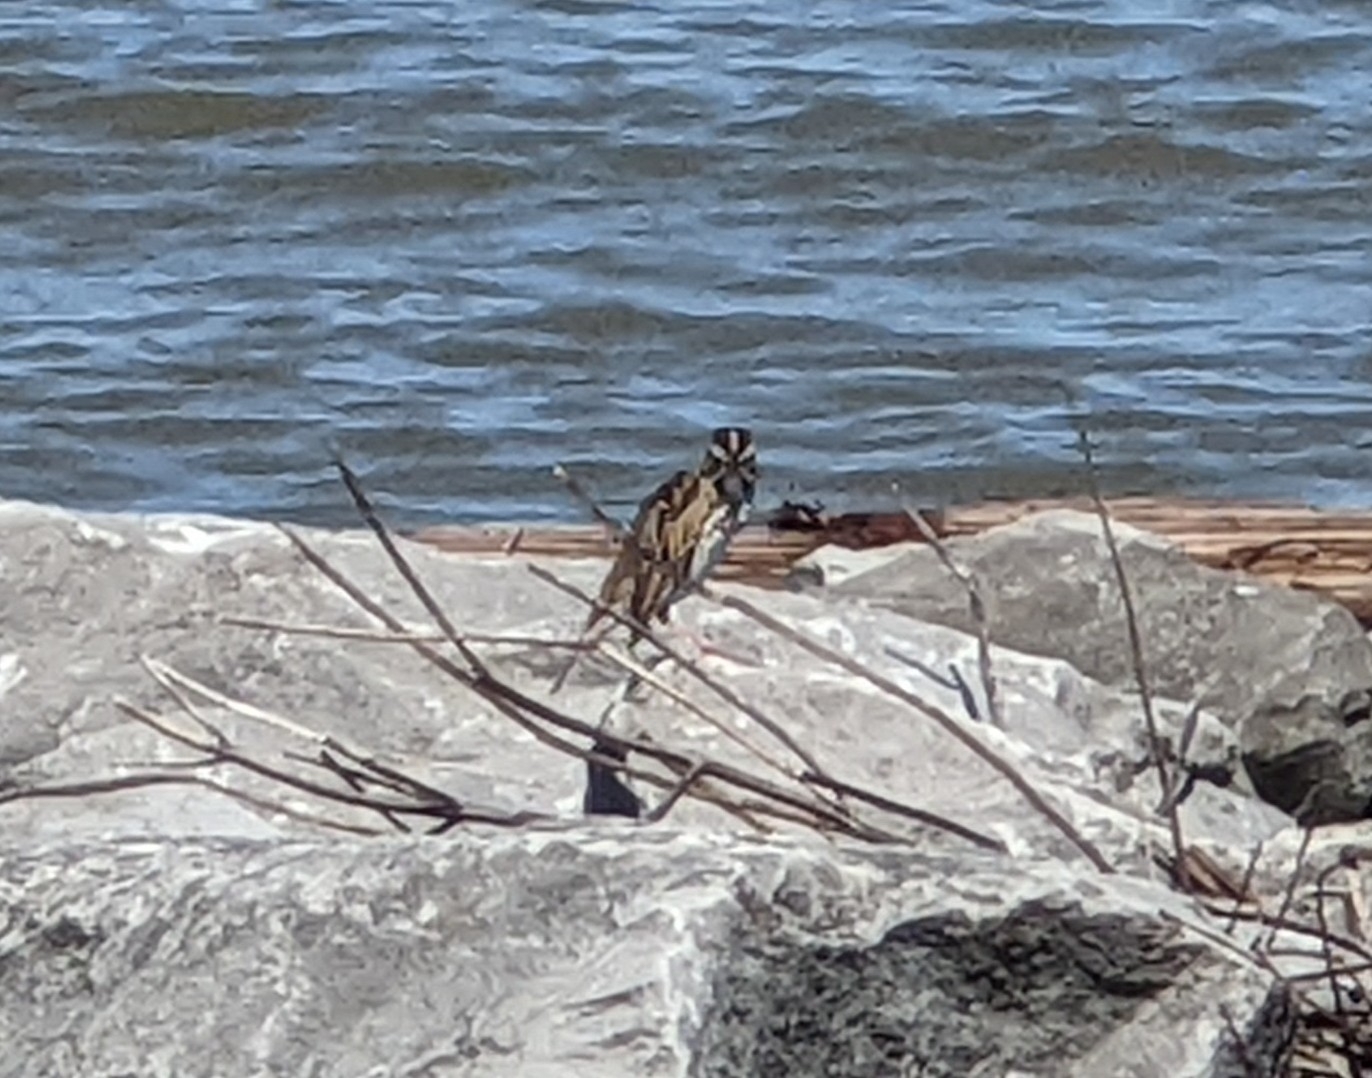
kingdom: Animalia
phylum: Chordata
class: Aves
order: Passeriformes
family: Passerellidae
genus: Passerculus
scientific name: Passerculus sandwichensis
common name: Savannah sparrow
